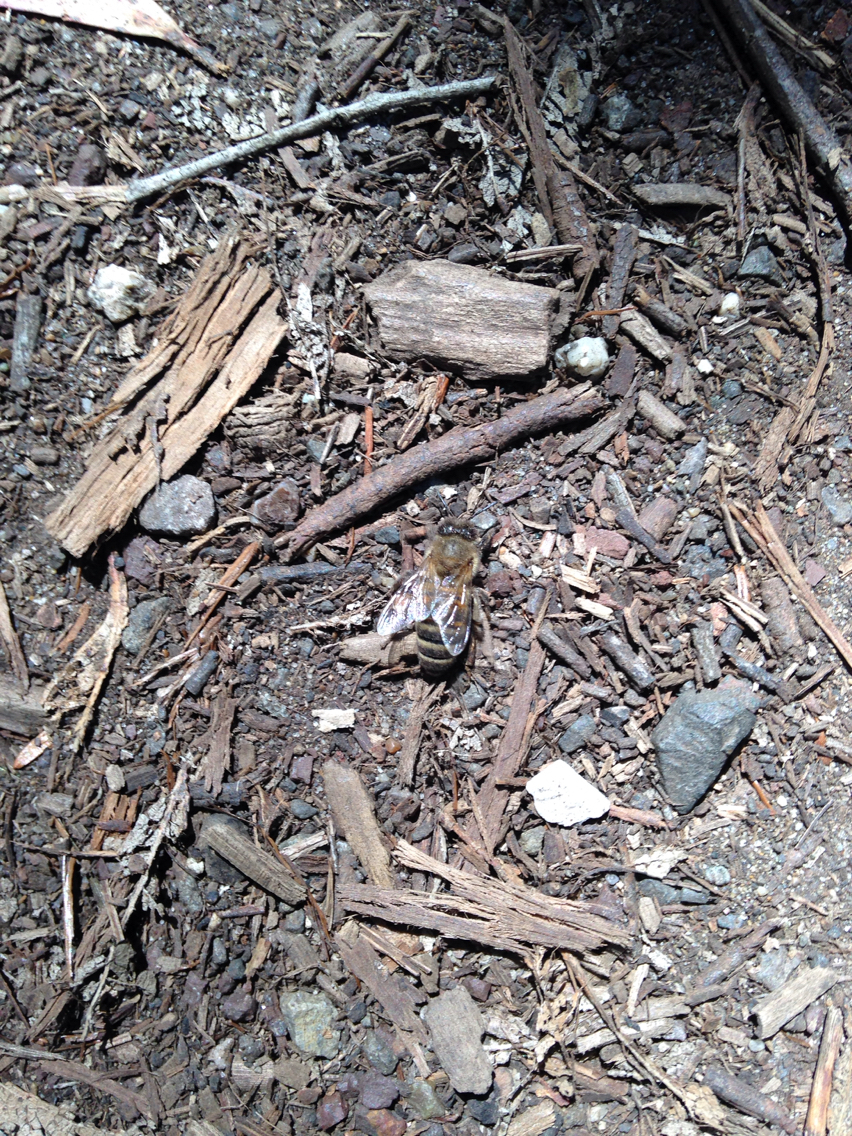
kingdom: Animalia
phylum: Arthropoda
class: Insecta
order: Hymenoptera
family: Apidae
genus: Apis
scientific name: Apis mellifera
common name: Honey bee
